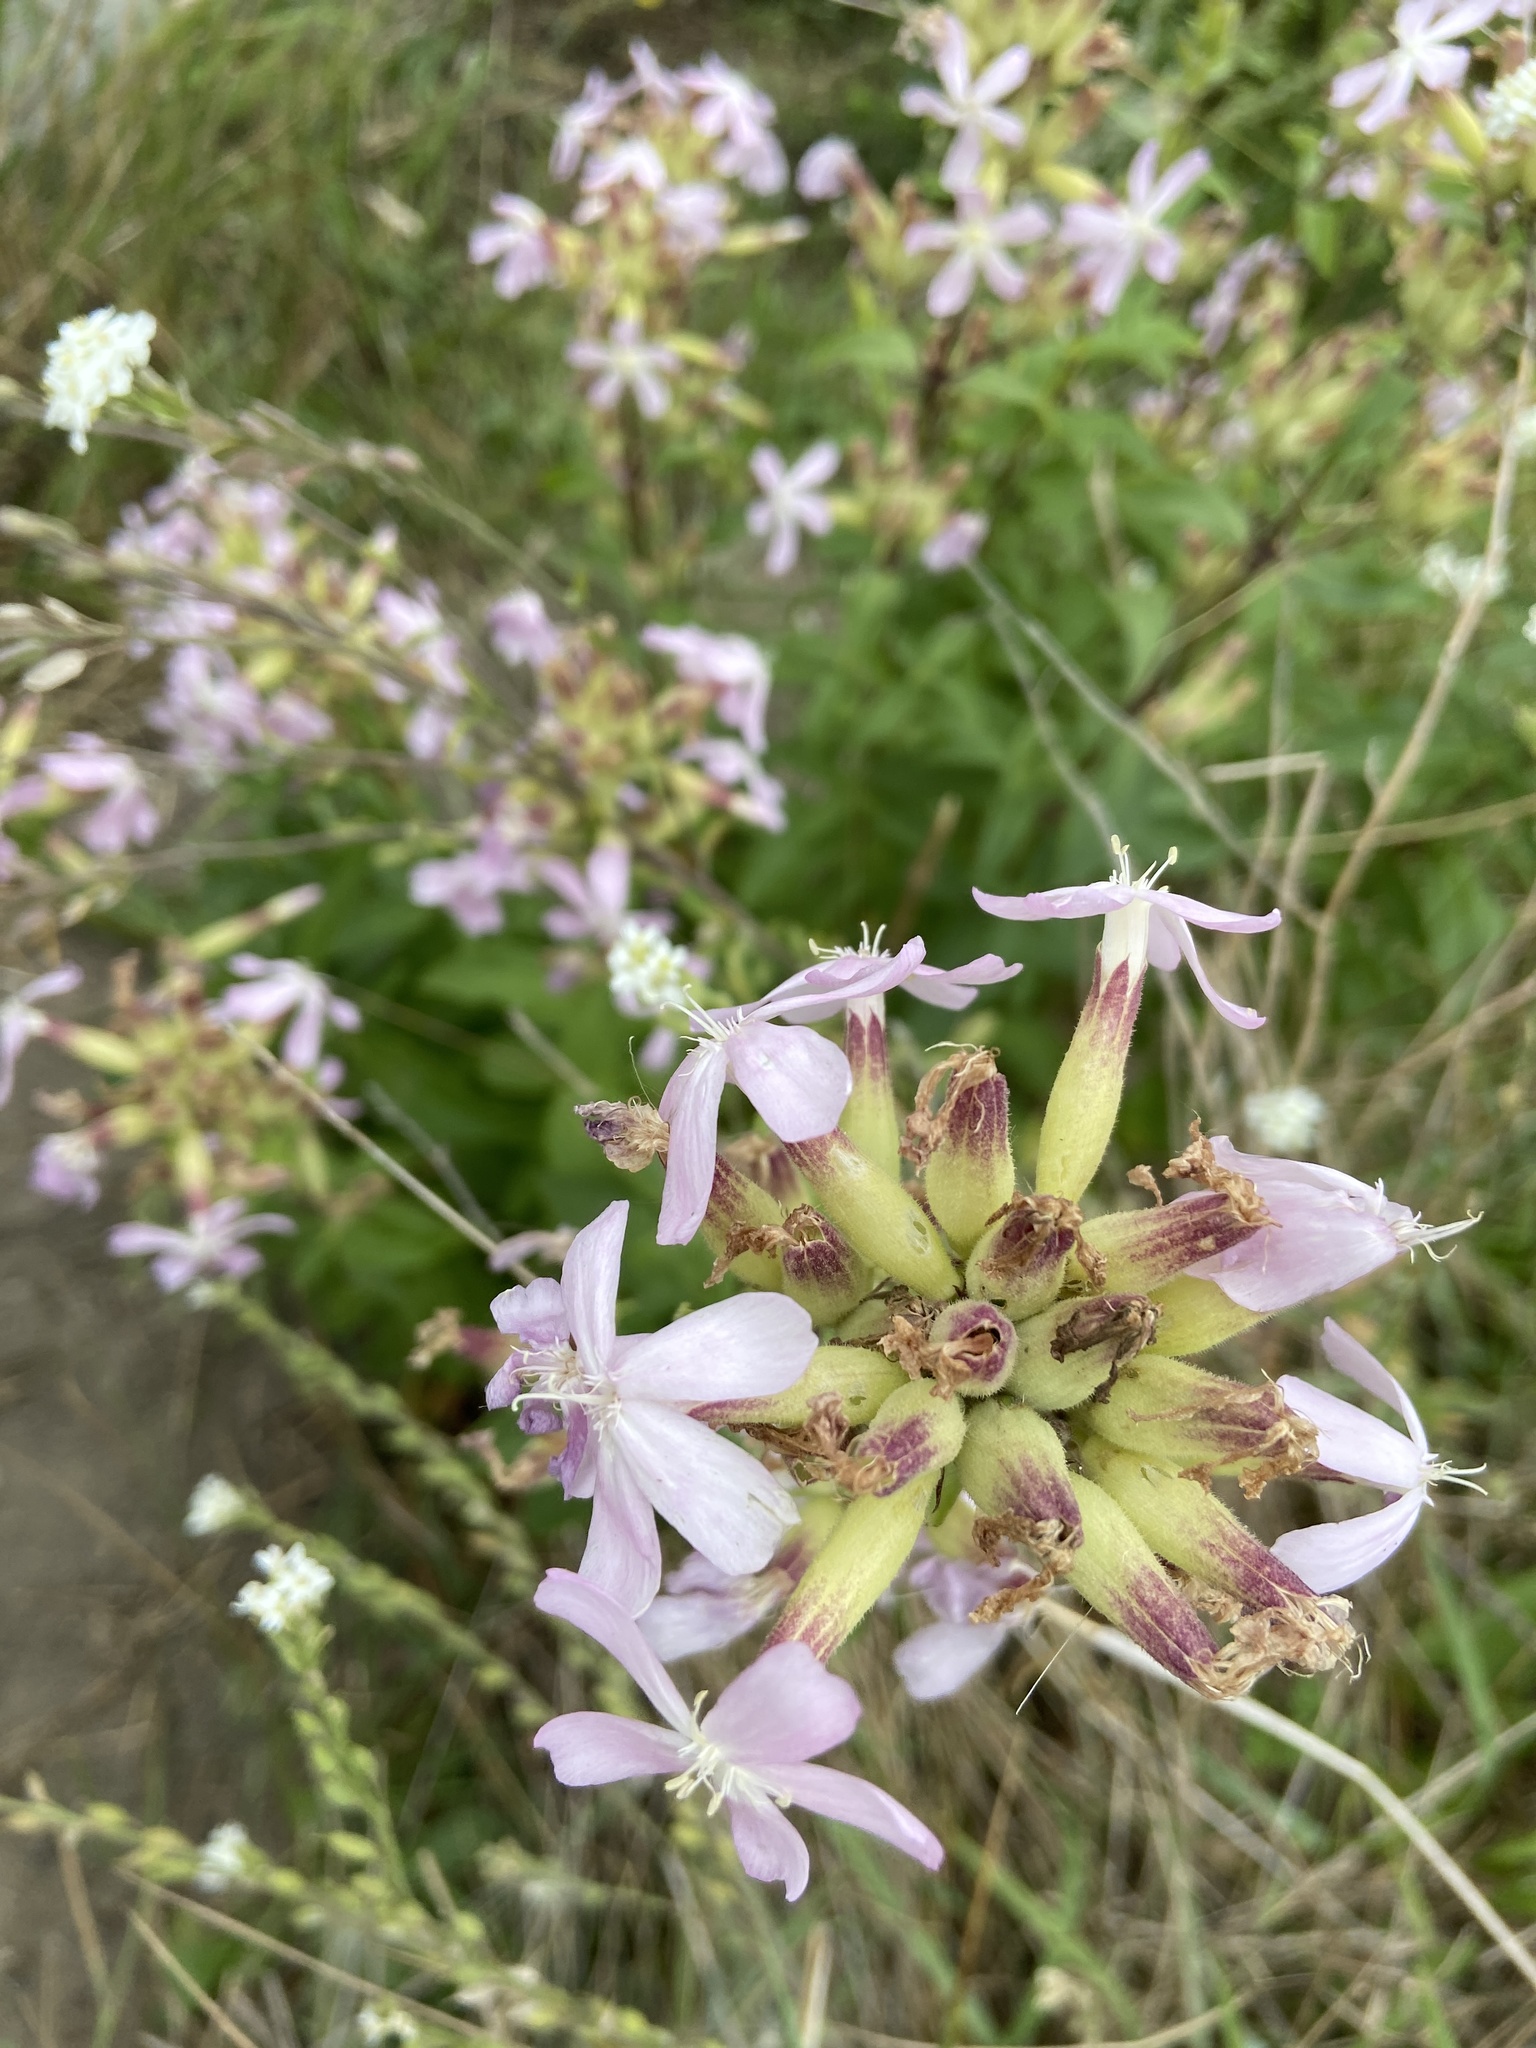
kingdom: Plantae
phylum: Tracheophyta
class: Magnoliopsida
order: Caryophyllales
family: Caryophyllaceae
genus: Saponaria
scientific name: Saponaria officinalis
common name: Soapwort
